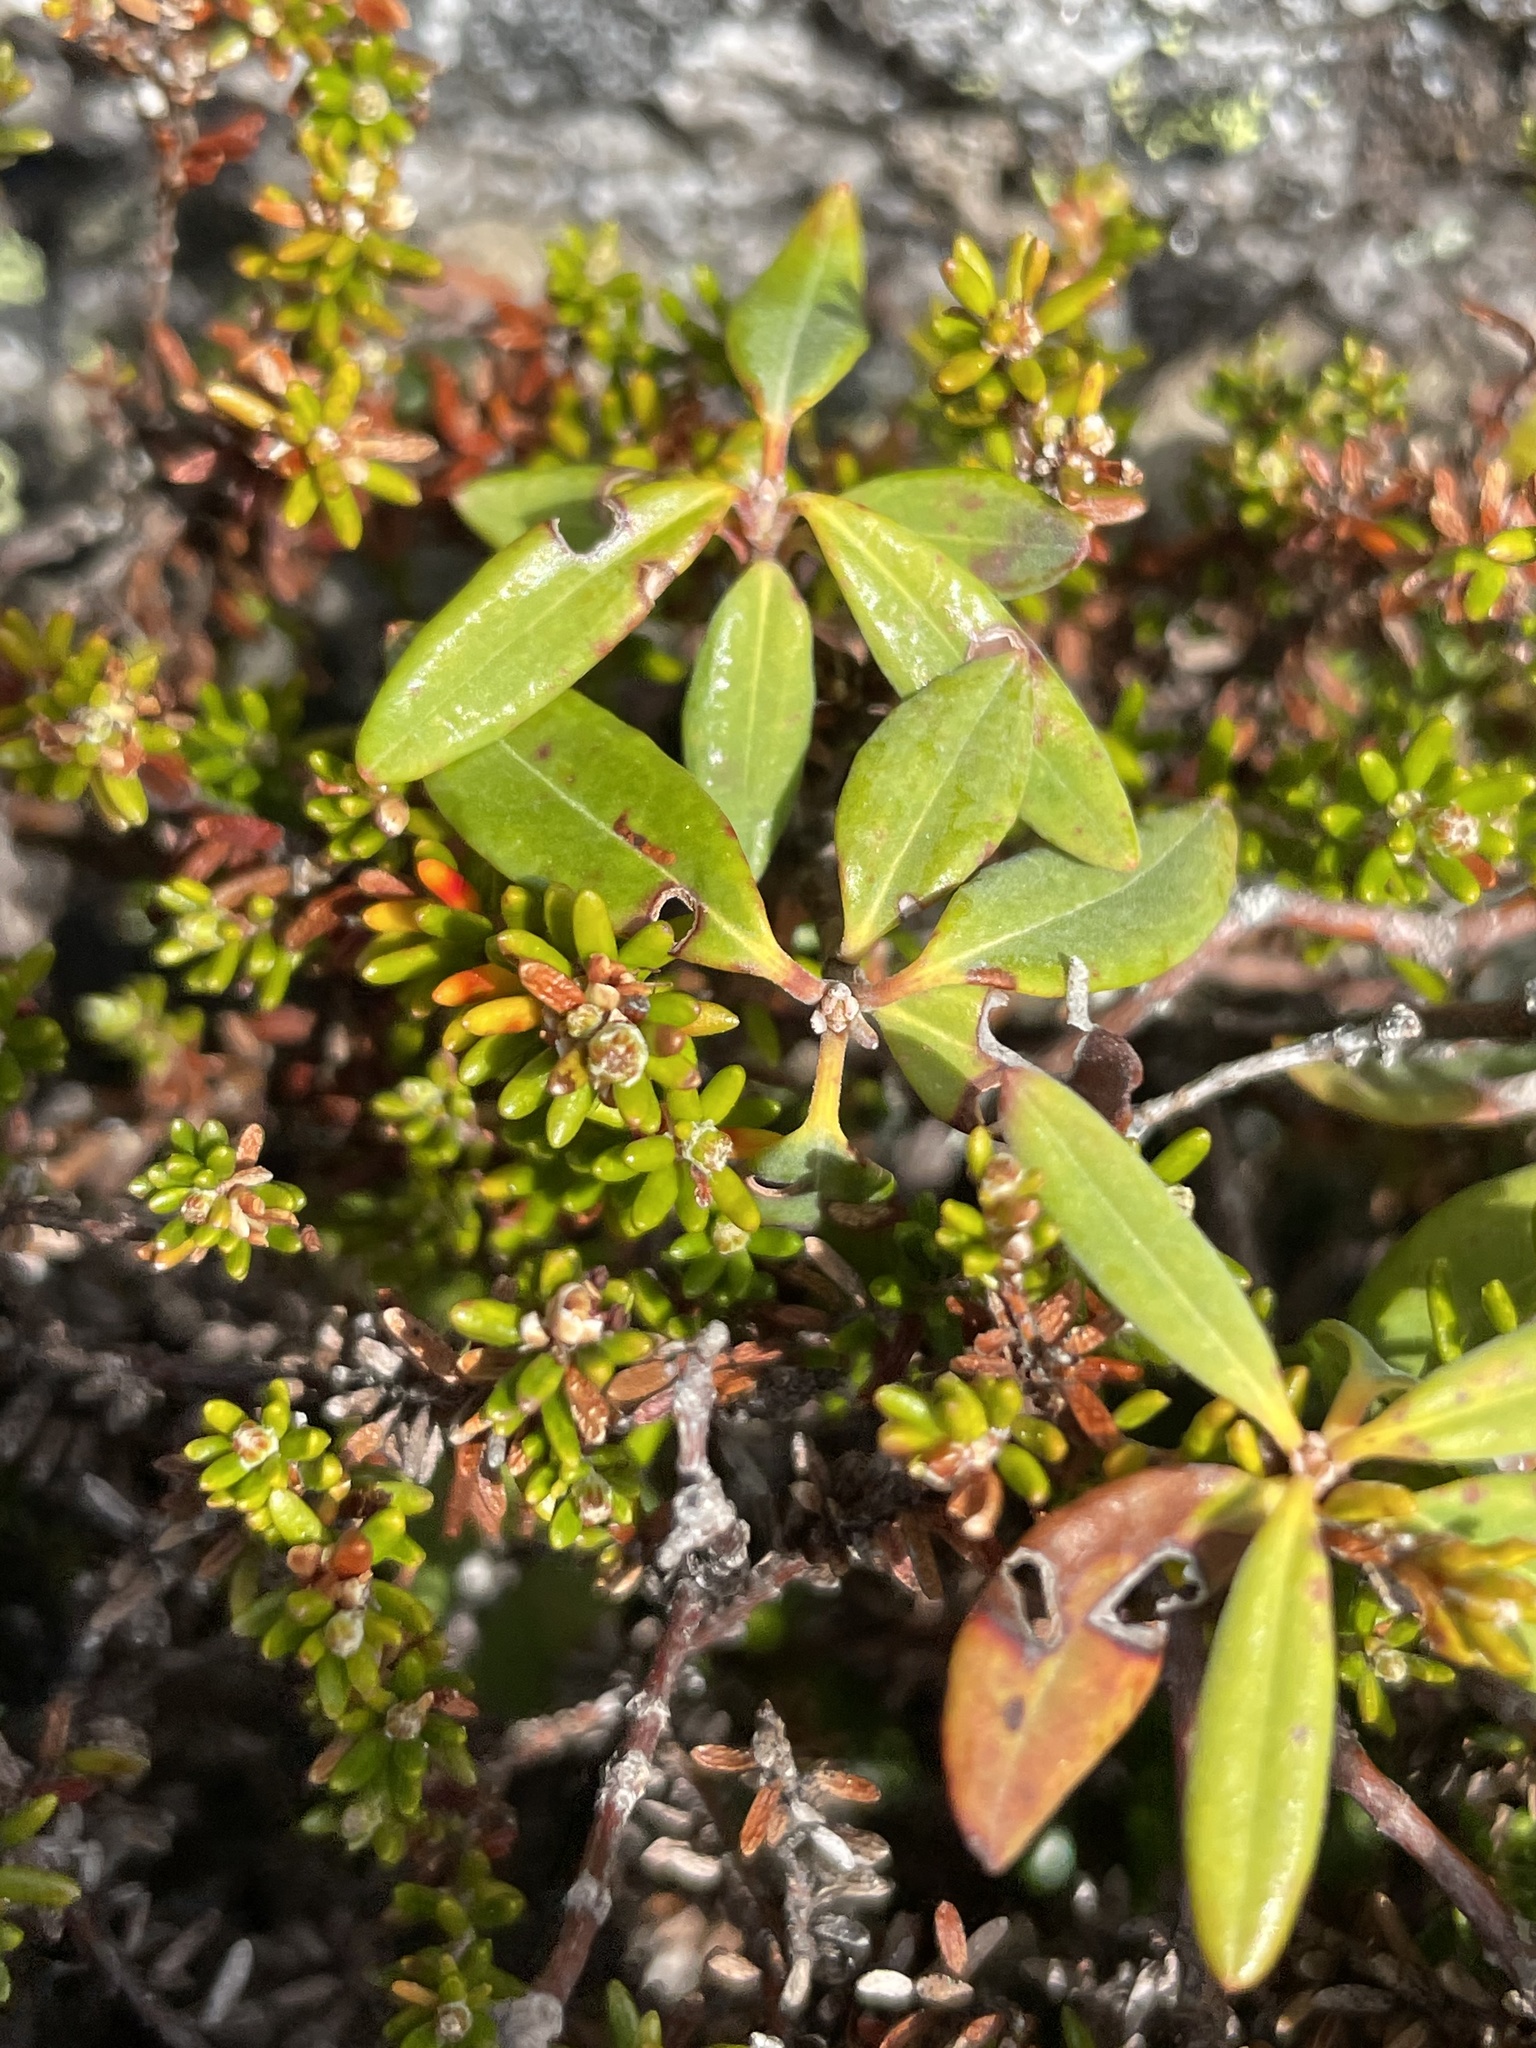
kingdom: Plantae
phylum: Tracheophyta
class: Magnoliopsida
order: Ericales
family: Ericaceae
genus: Kalmia
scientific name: Kalmia angustifolia
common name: Sheep-laurel
